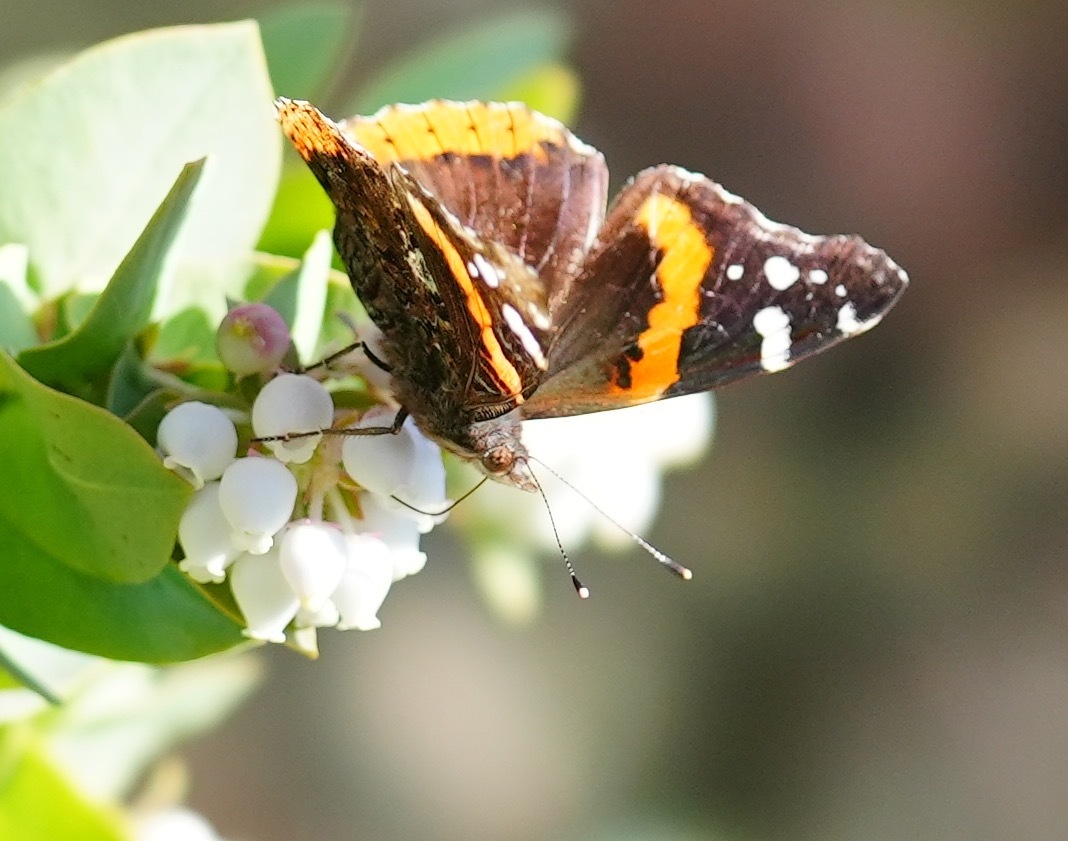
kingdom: Animalia
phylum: Arthropoda
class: Insecta
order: Lepidoptera
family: Nymphalidae
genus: Vanessa
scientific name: Vanessa atalanta
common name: Red admiral
